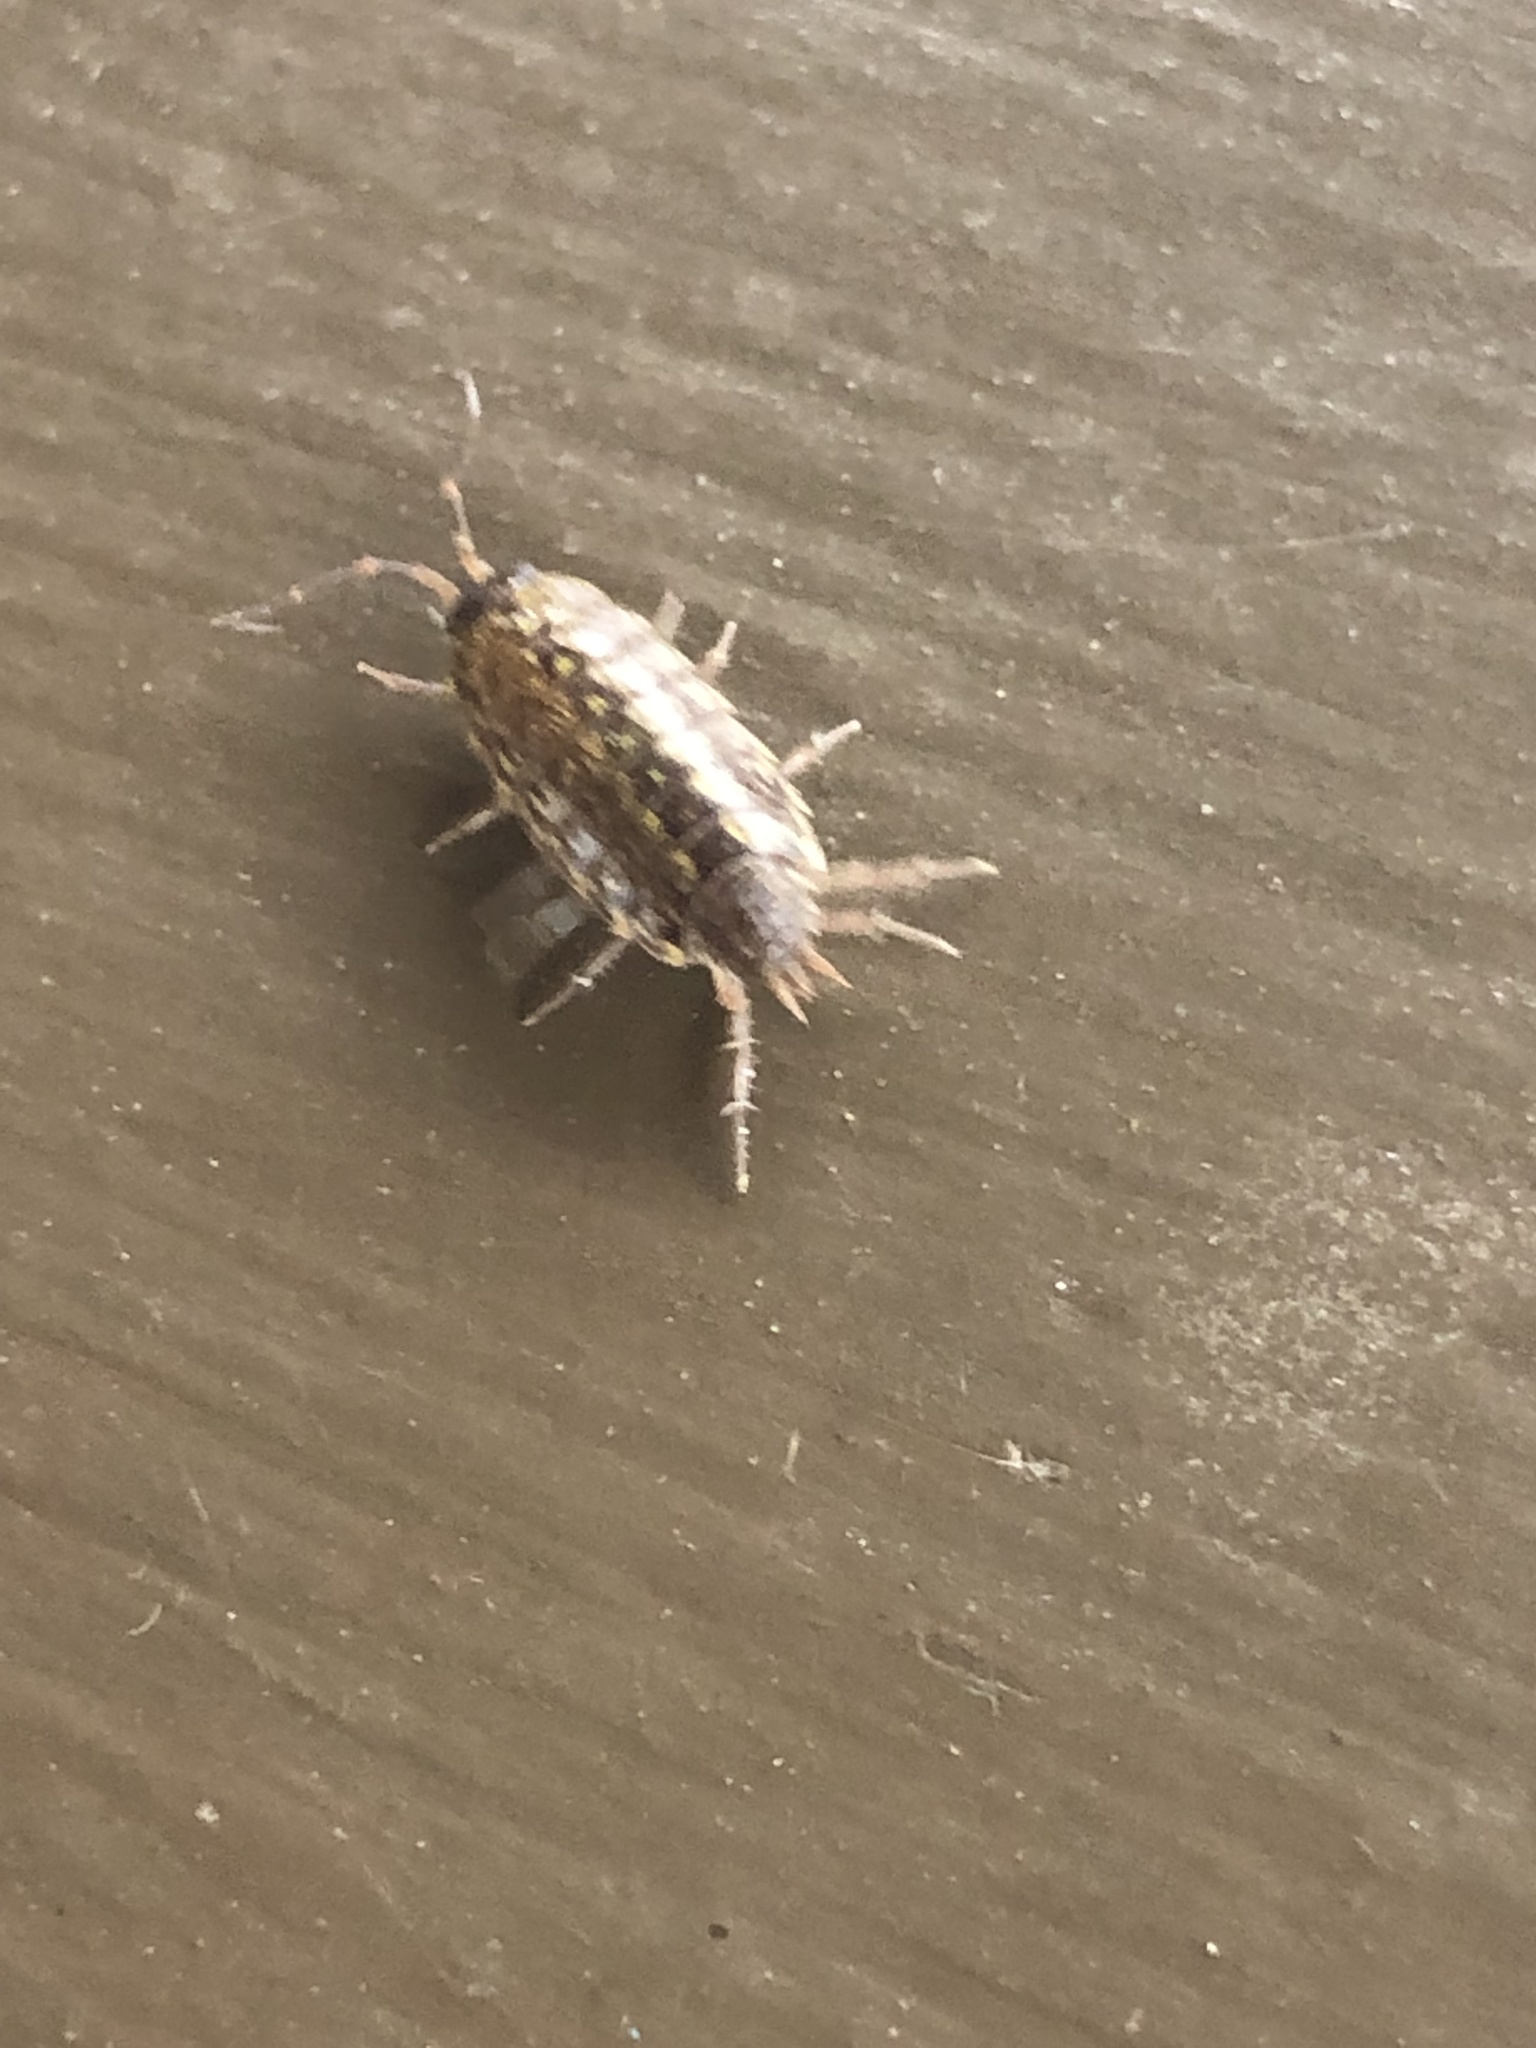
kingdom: Animalia
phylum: Arthropoda
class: Malacostraca
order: Isopoda
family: Philosciidae
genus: Philoscia
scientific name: Philoscia muscorum
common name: Common striped woodlouse
